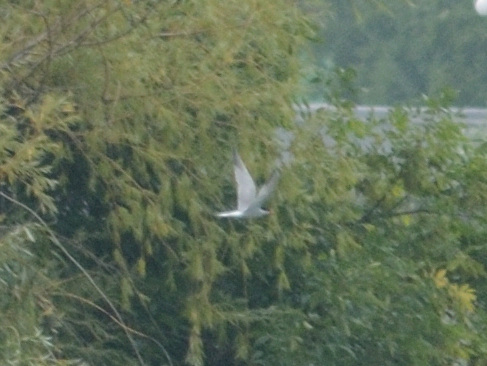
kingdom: Animalia
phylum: Chordata
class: Aves
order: Charadriiformes
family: Laridae
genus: Sterna
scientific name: Sterna hirundo
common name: Common tern
